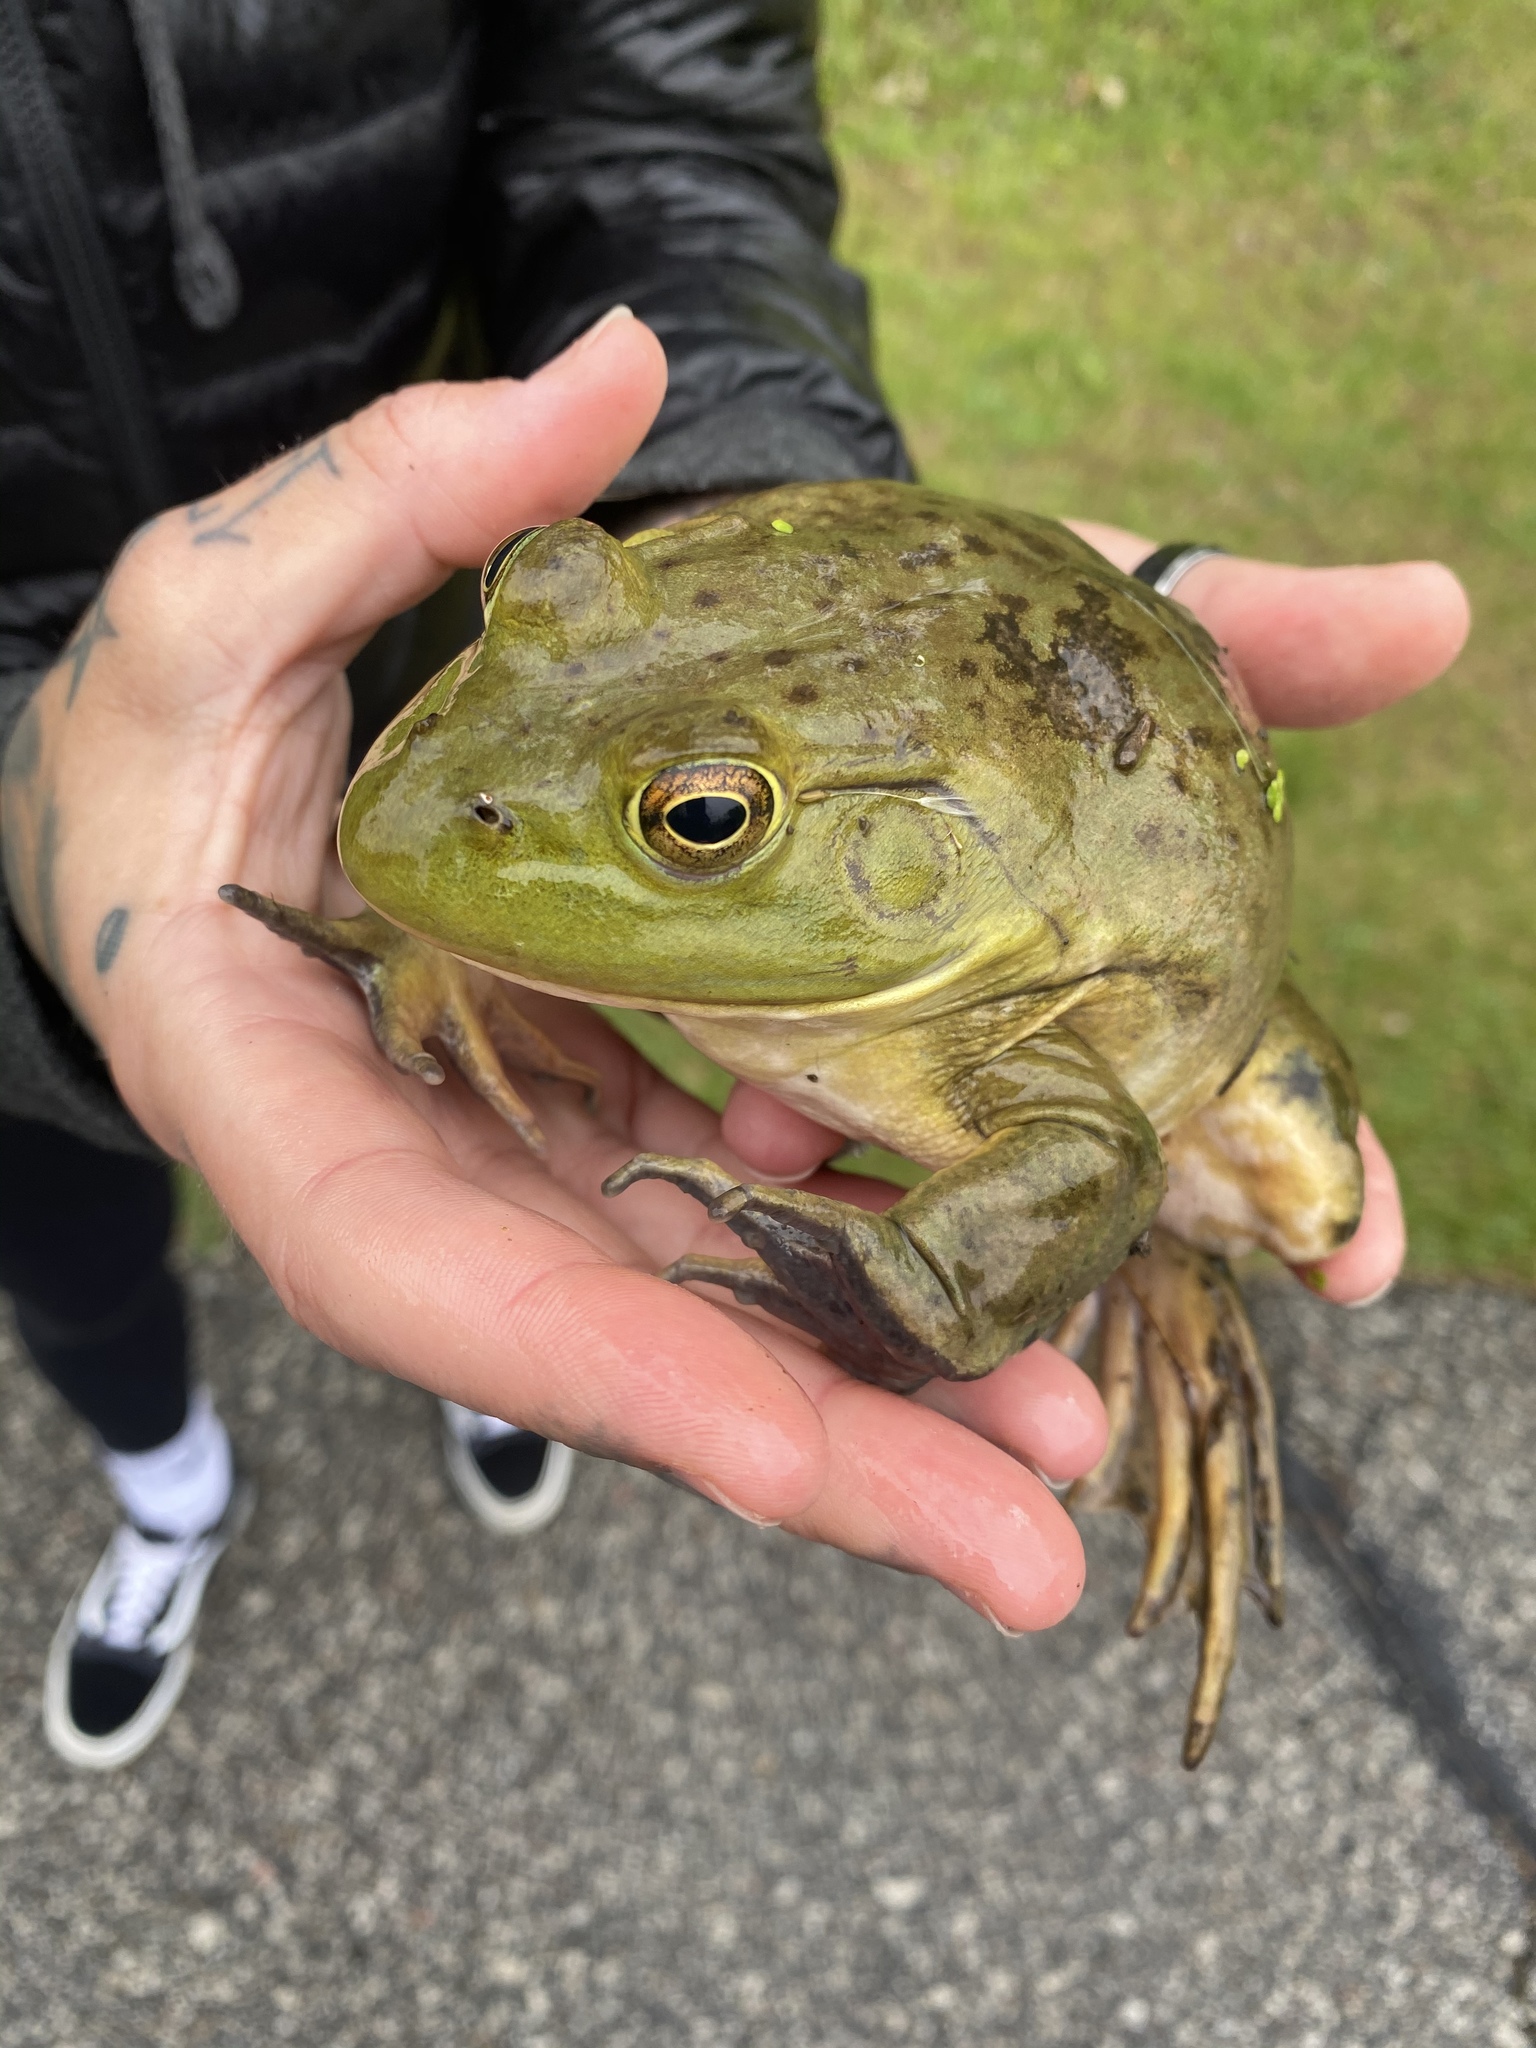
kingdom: Animalia
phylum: Chordata
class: Amphibia
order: Anura
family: Ranidae
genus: Lithobates
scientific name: Lithobates catesbeianus
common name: American bullfrog
